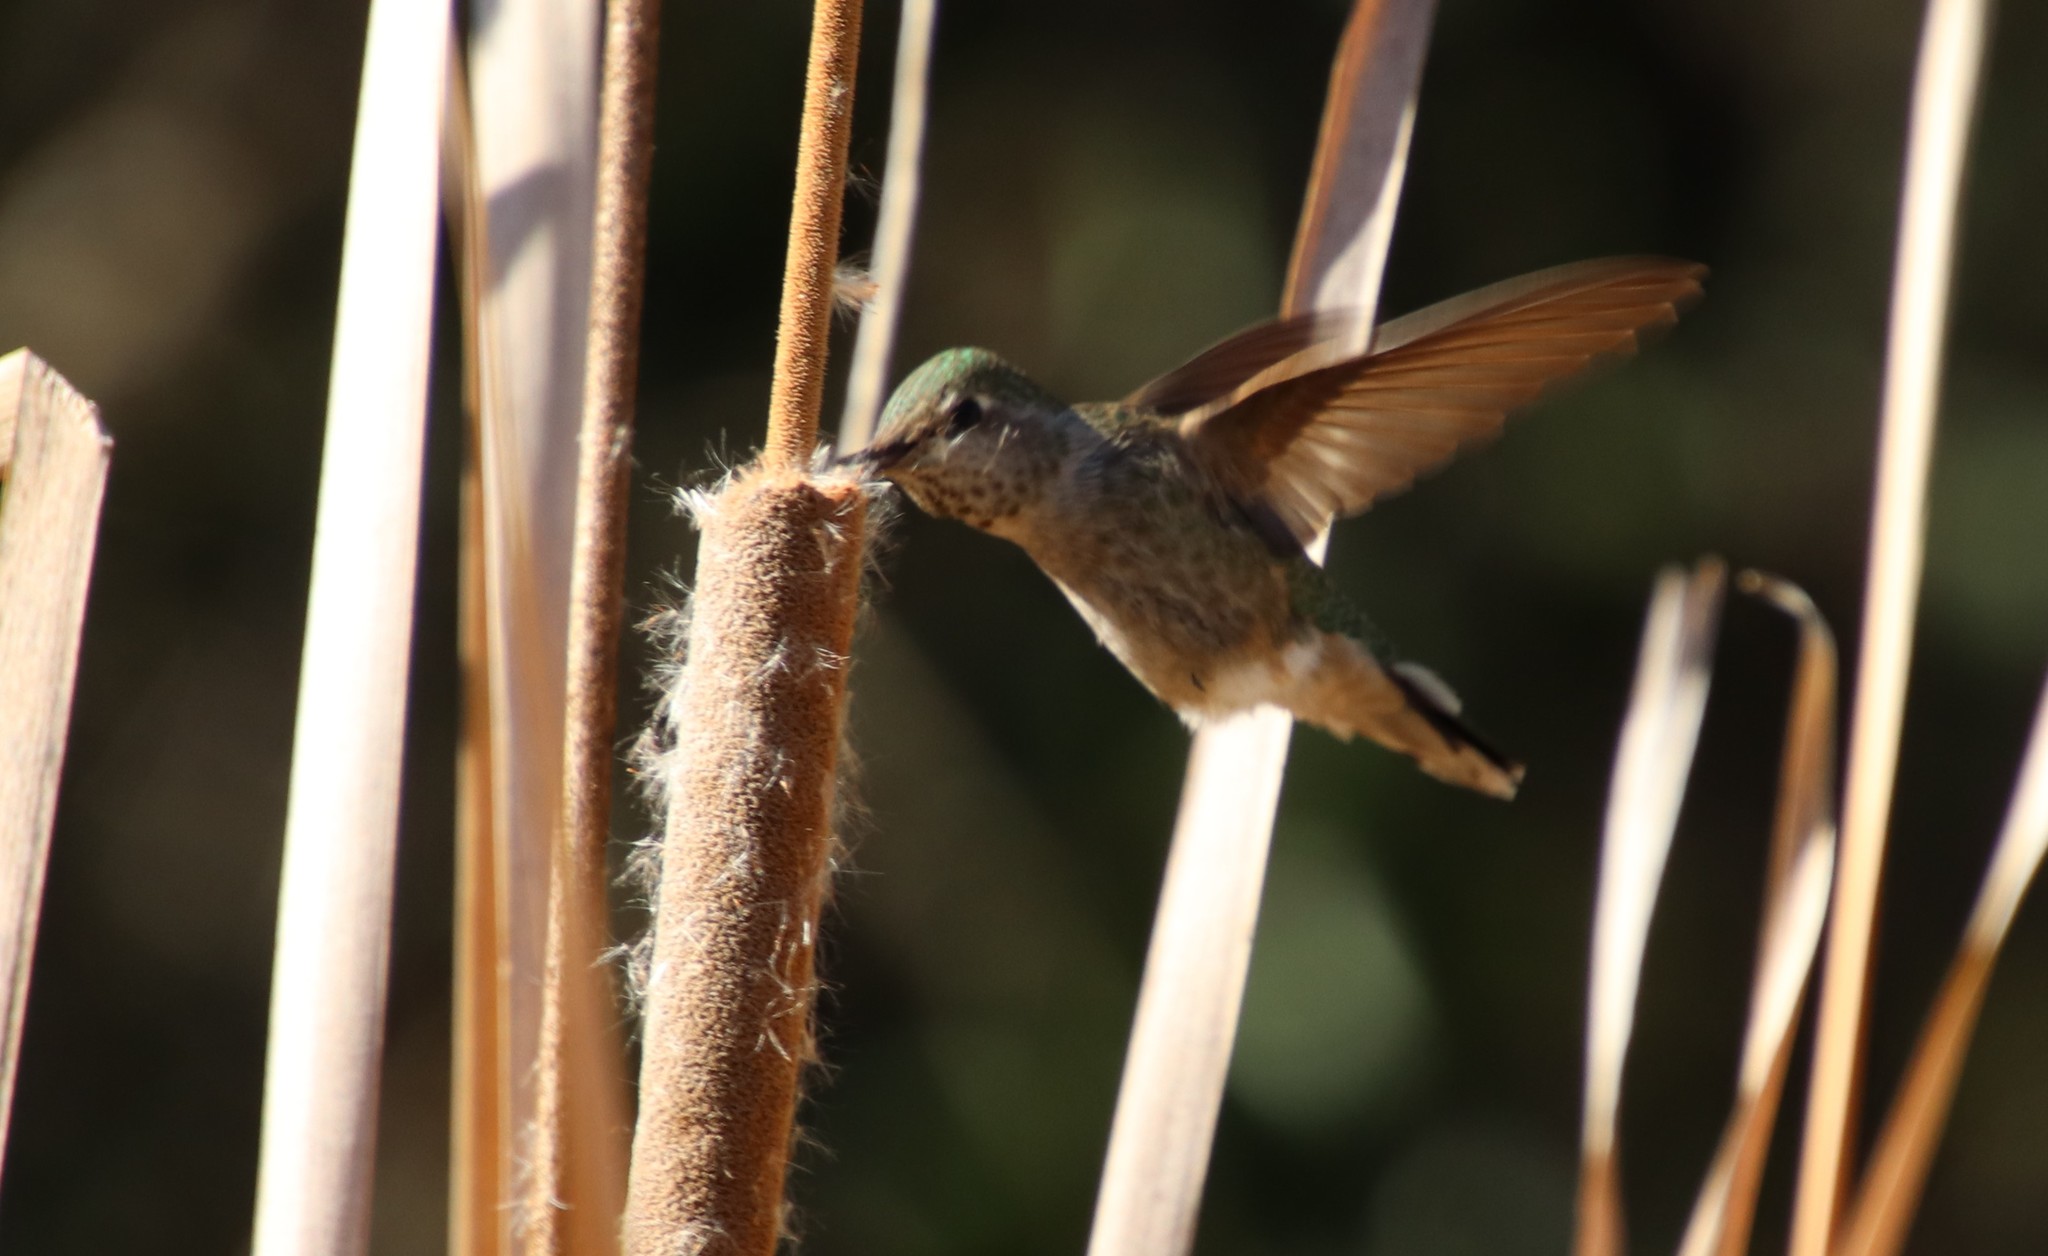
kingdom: Animalia
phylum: Chordata
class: Aves
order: Apodiformes
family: Trochilidae
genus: Calypte
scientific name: Calypte anna
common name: Anna's hummingbird
